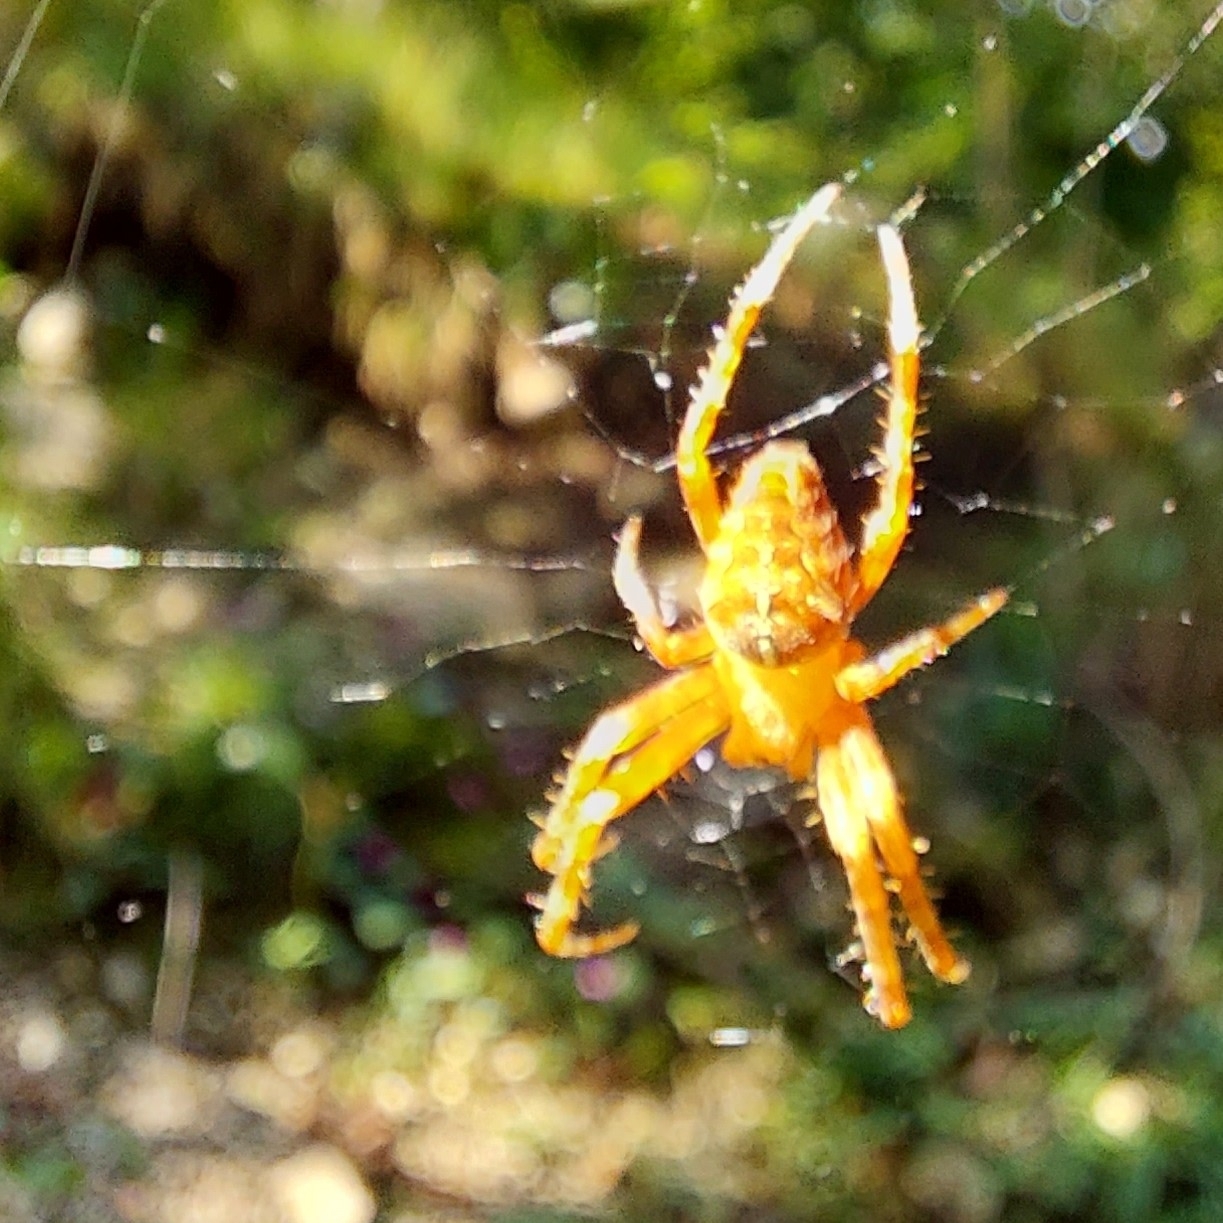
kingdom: Animalia
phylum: Arthropoda
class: Arachnida
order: Araneae
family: Araneidae
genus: Araneus
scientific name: Araneus diadematus
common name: Cross orbweaver
